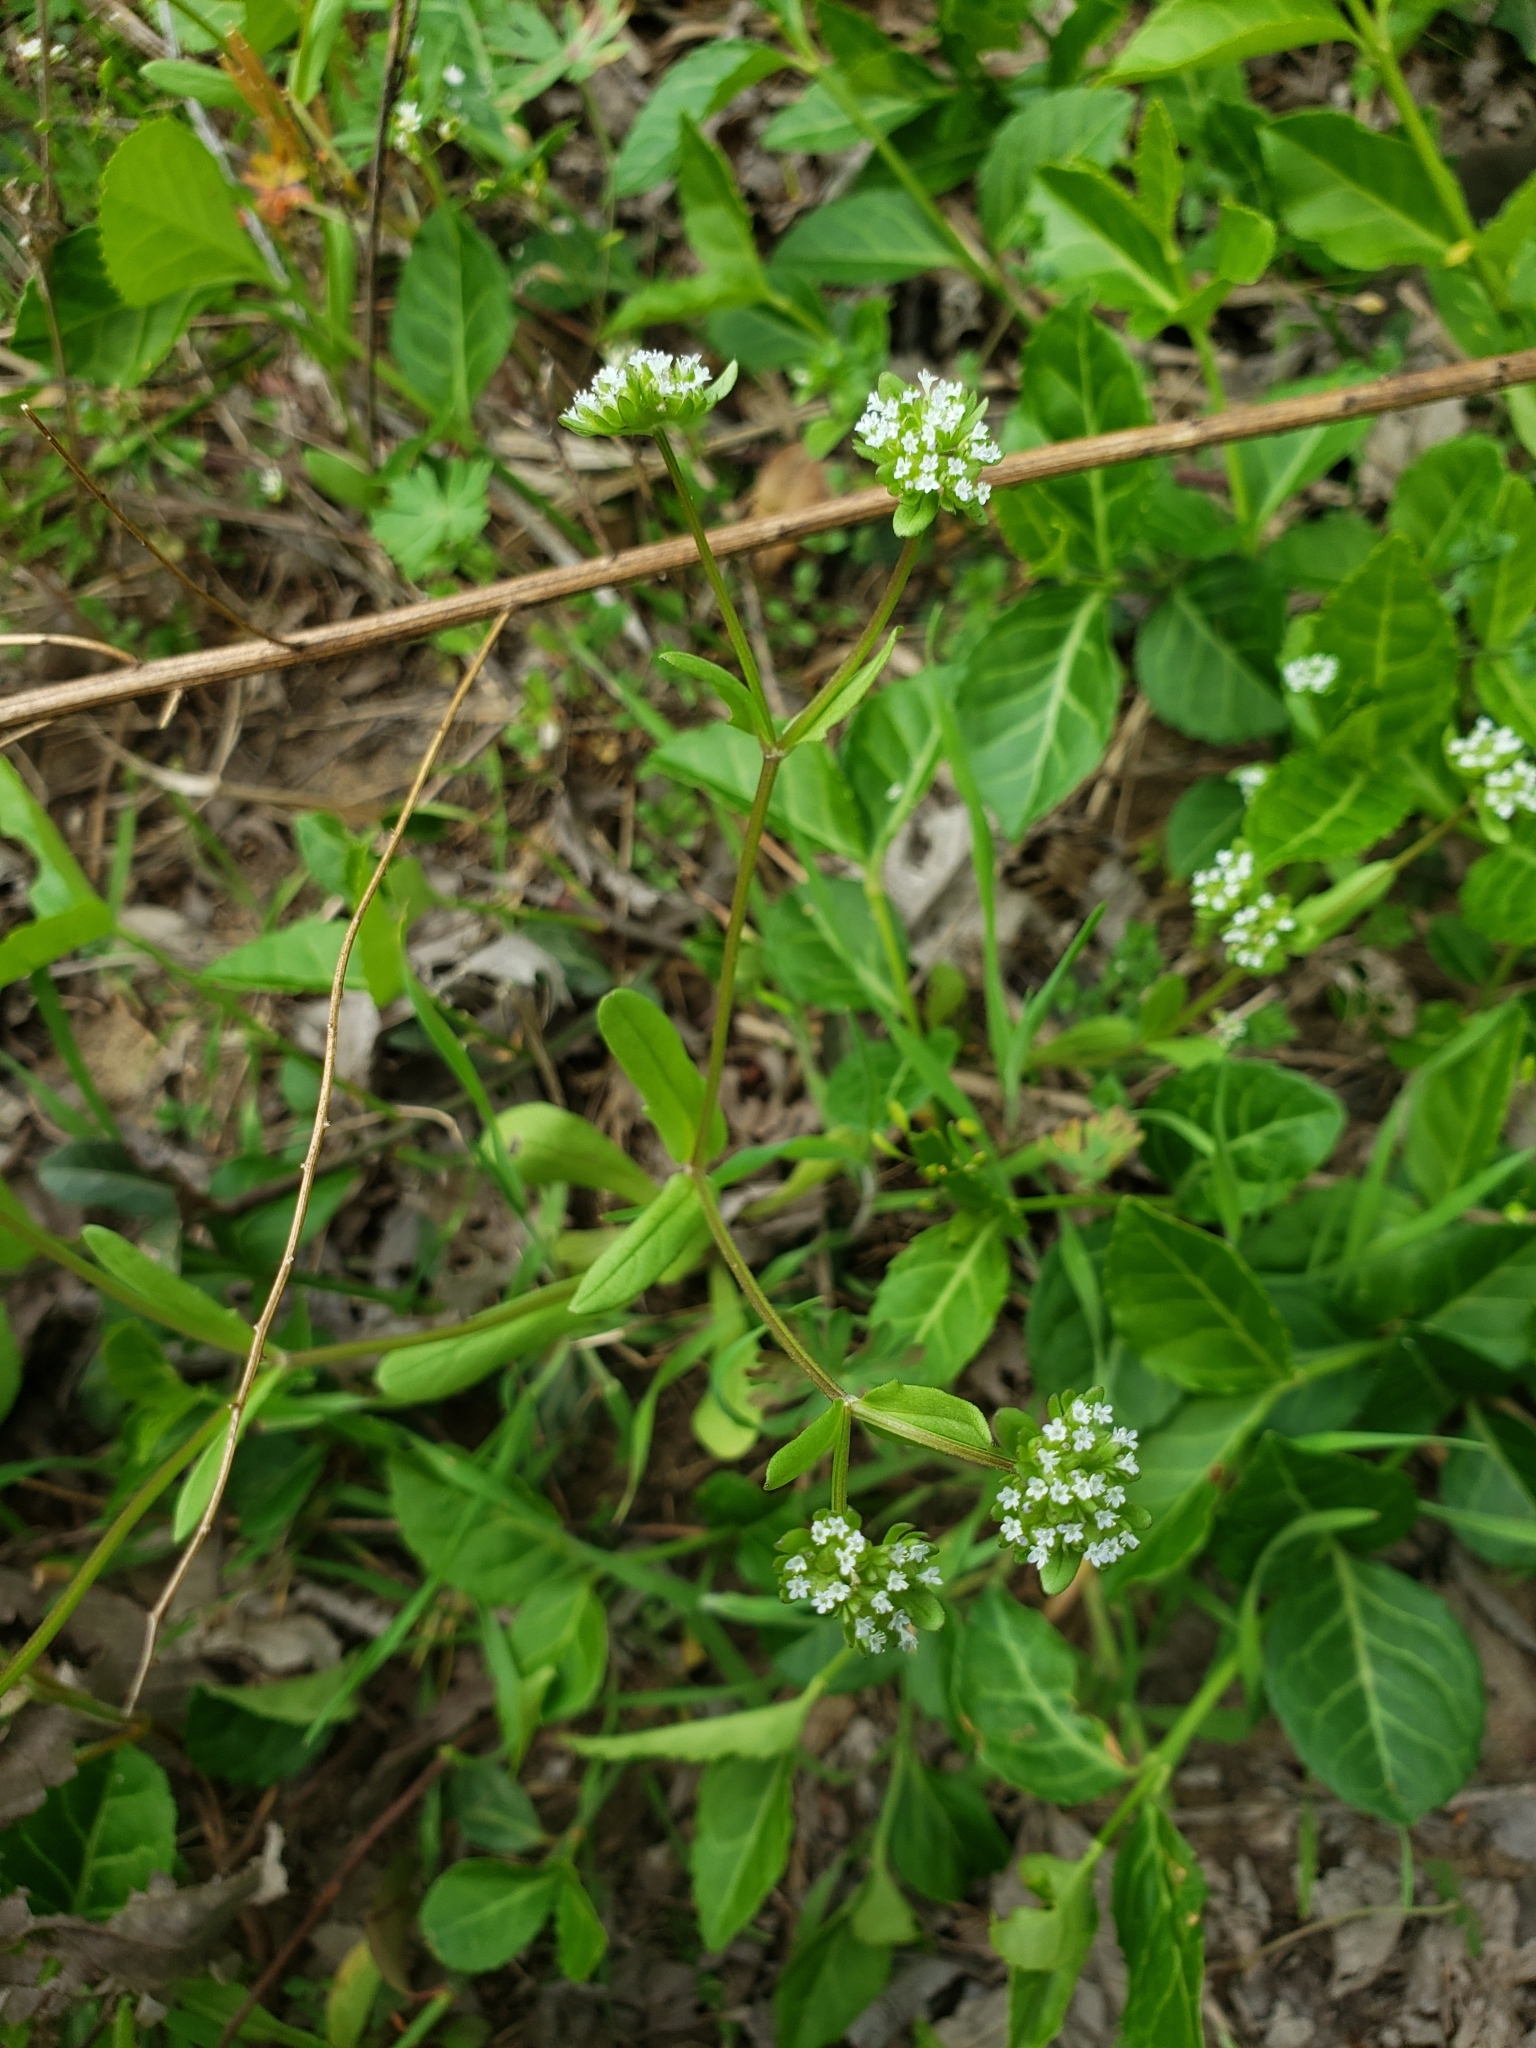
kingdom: Plantae
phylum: Tracheophyta
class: Magnoliopsida
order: Dipsacales
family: Caprifoliaceae
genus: Valerianella
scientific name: Valerianella locusta
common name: Common cornsalad
